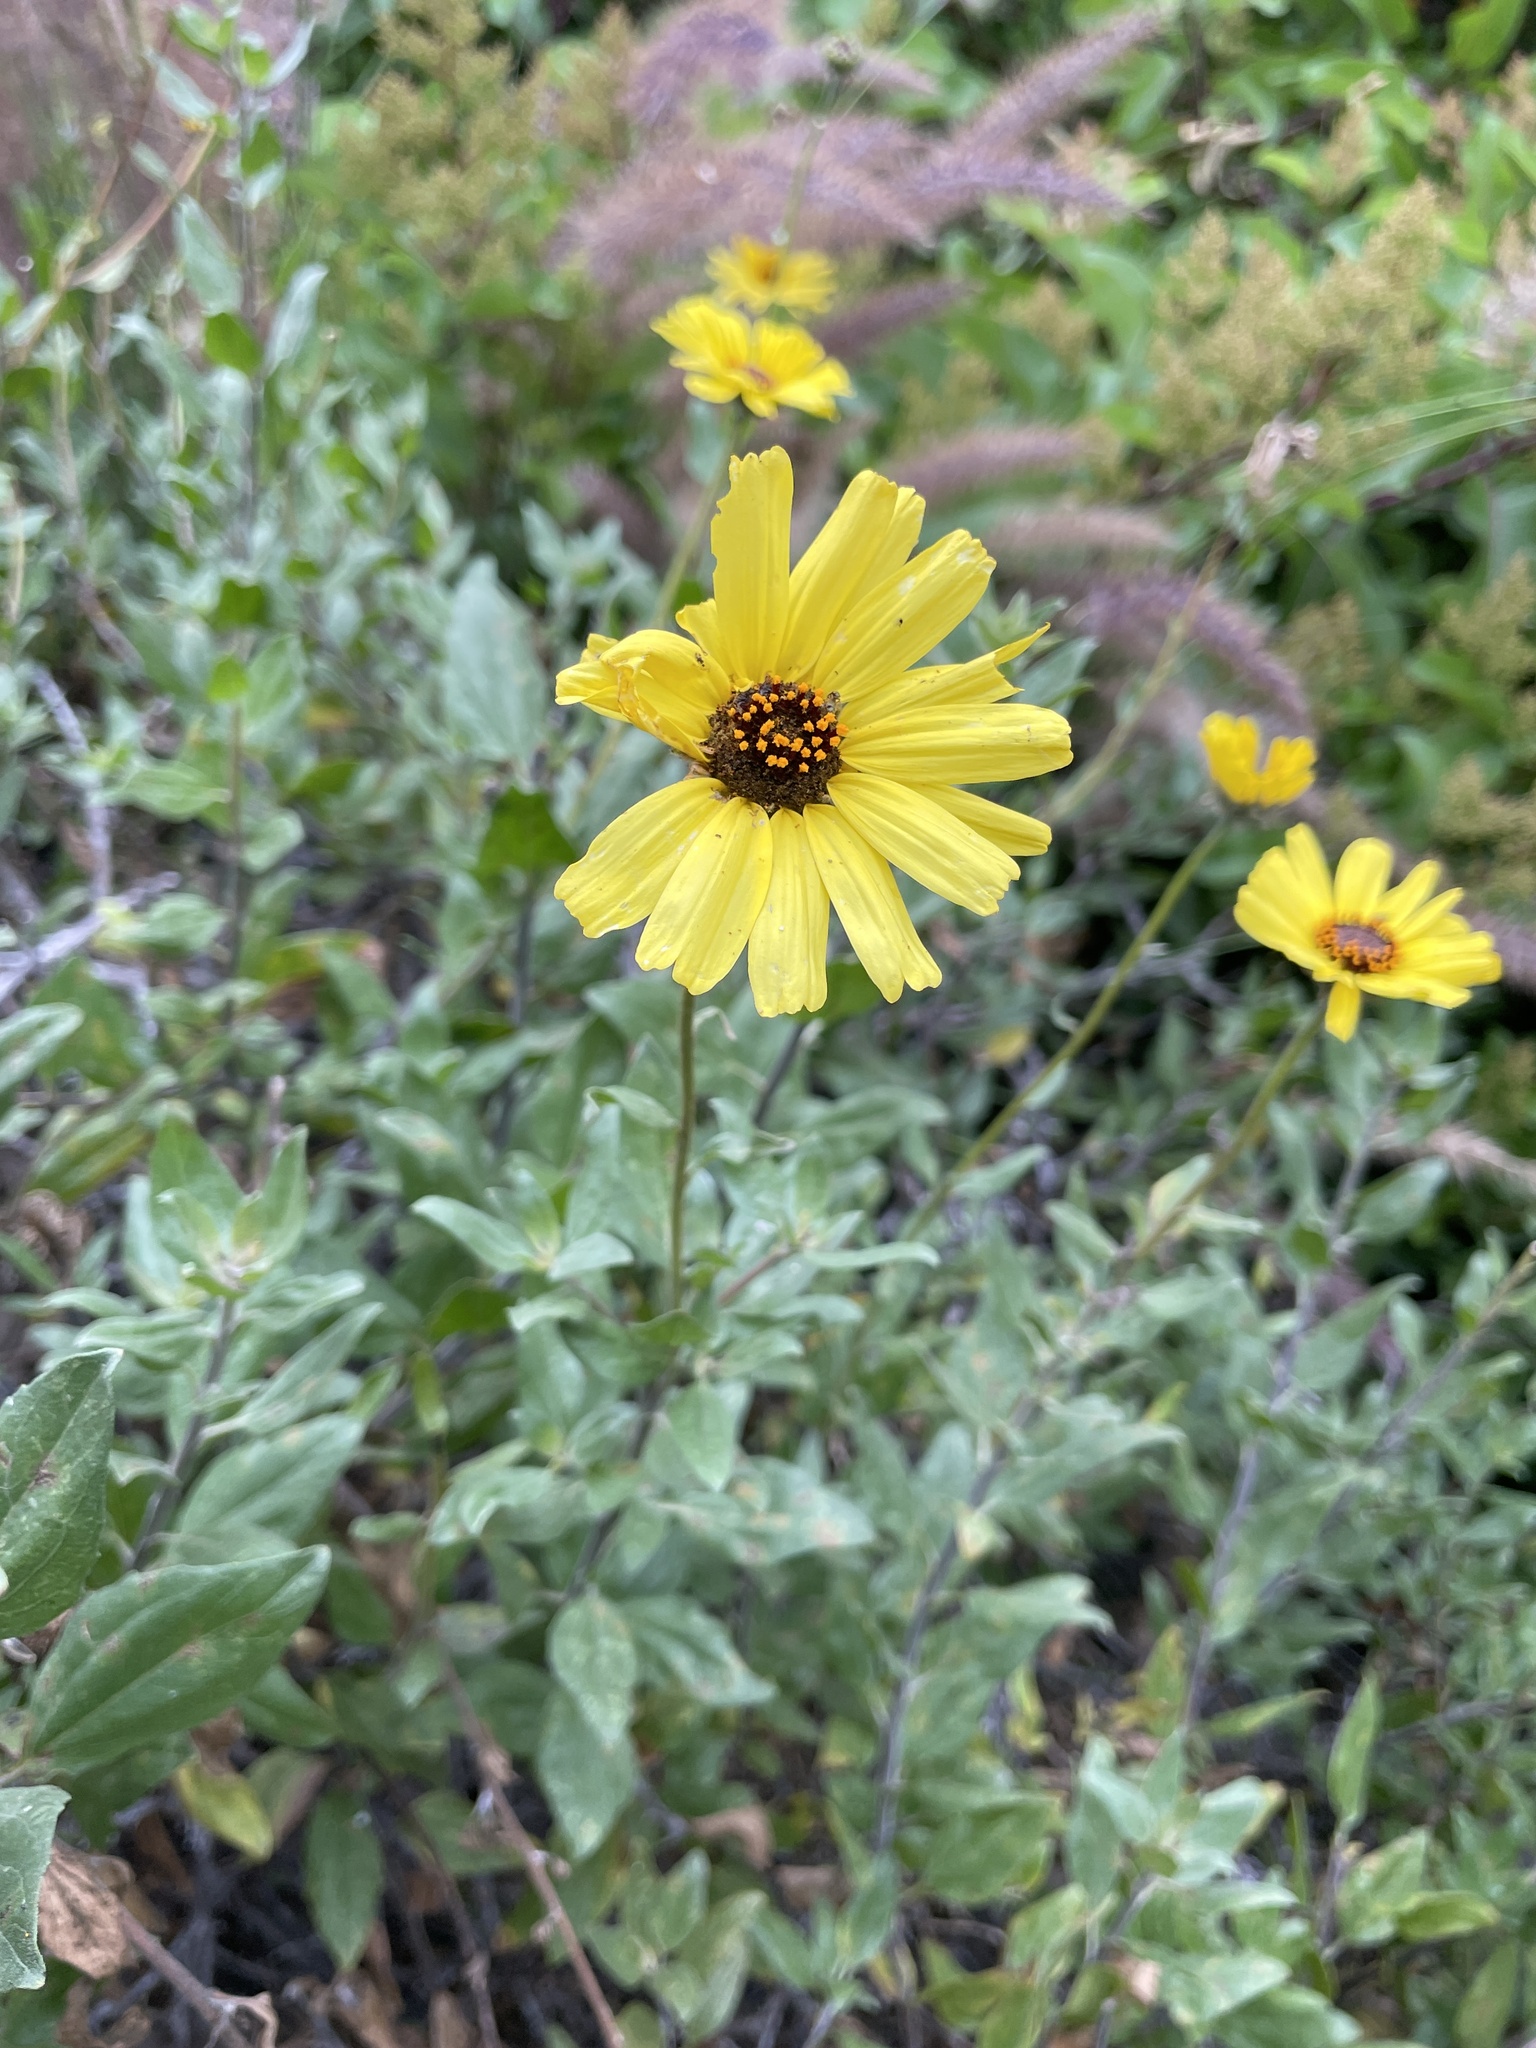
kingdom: Plantae
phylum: Tracheophyta
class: Magnoliopsida
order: Asterales
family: Asteraceae
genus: Encelia
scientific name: Encelia californica
